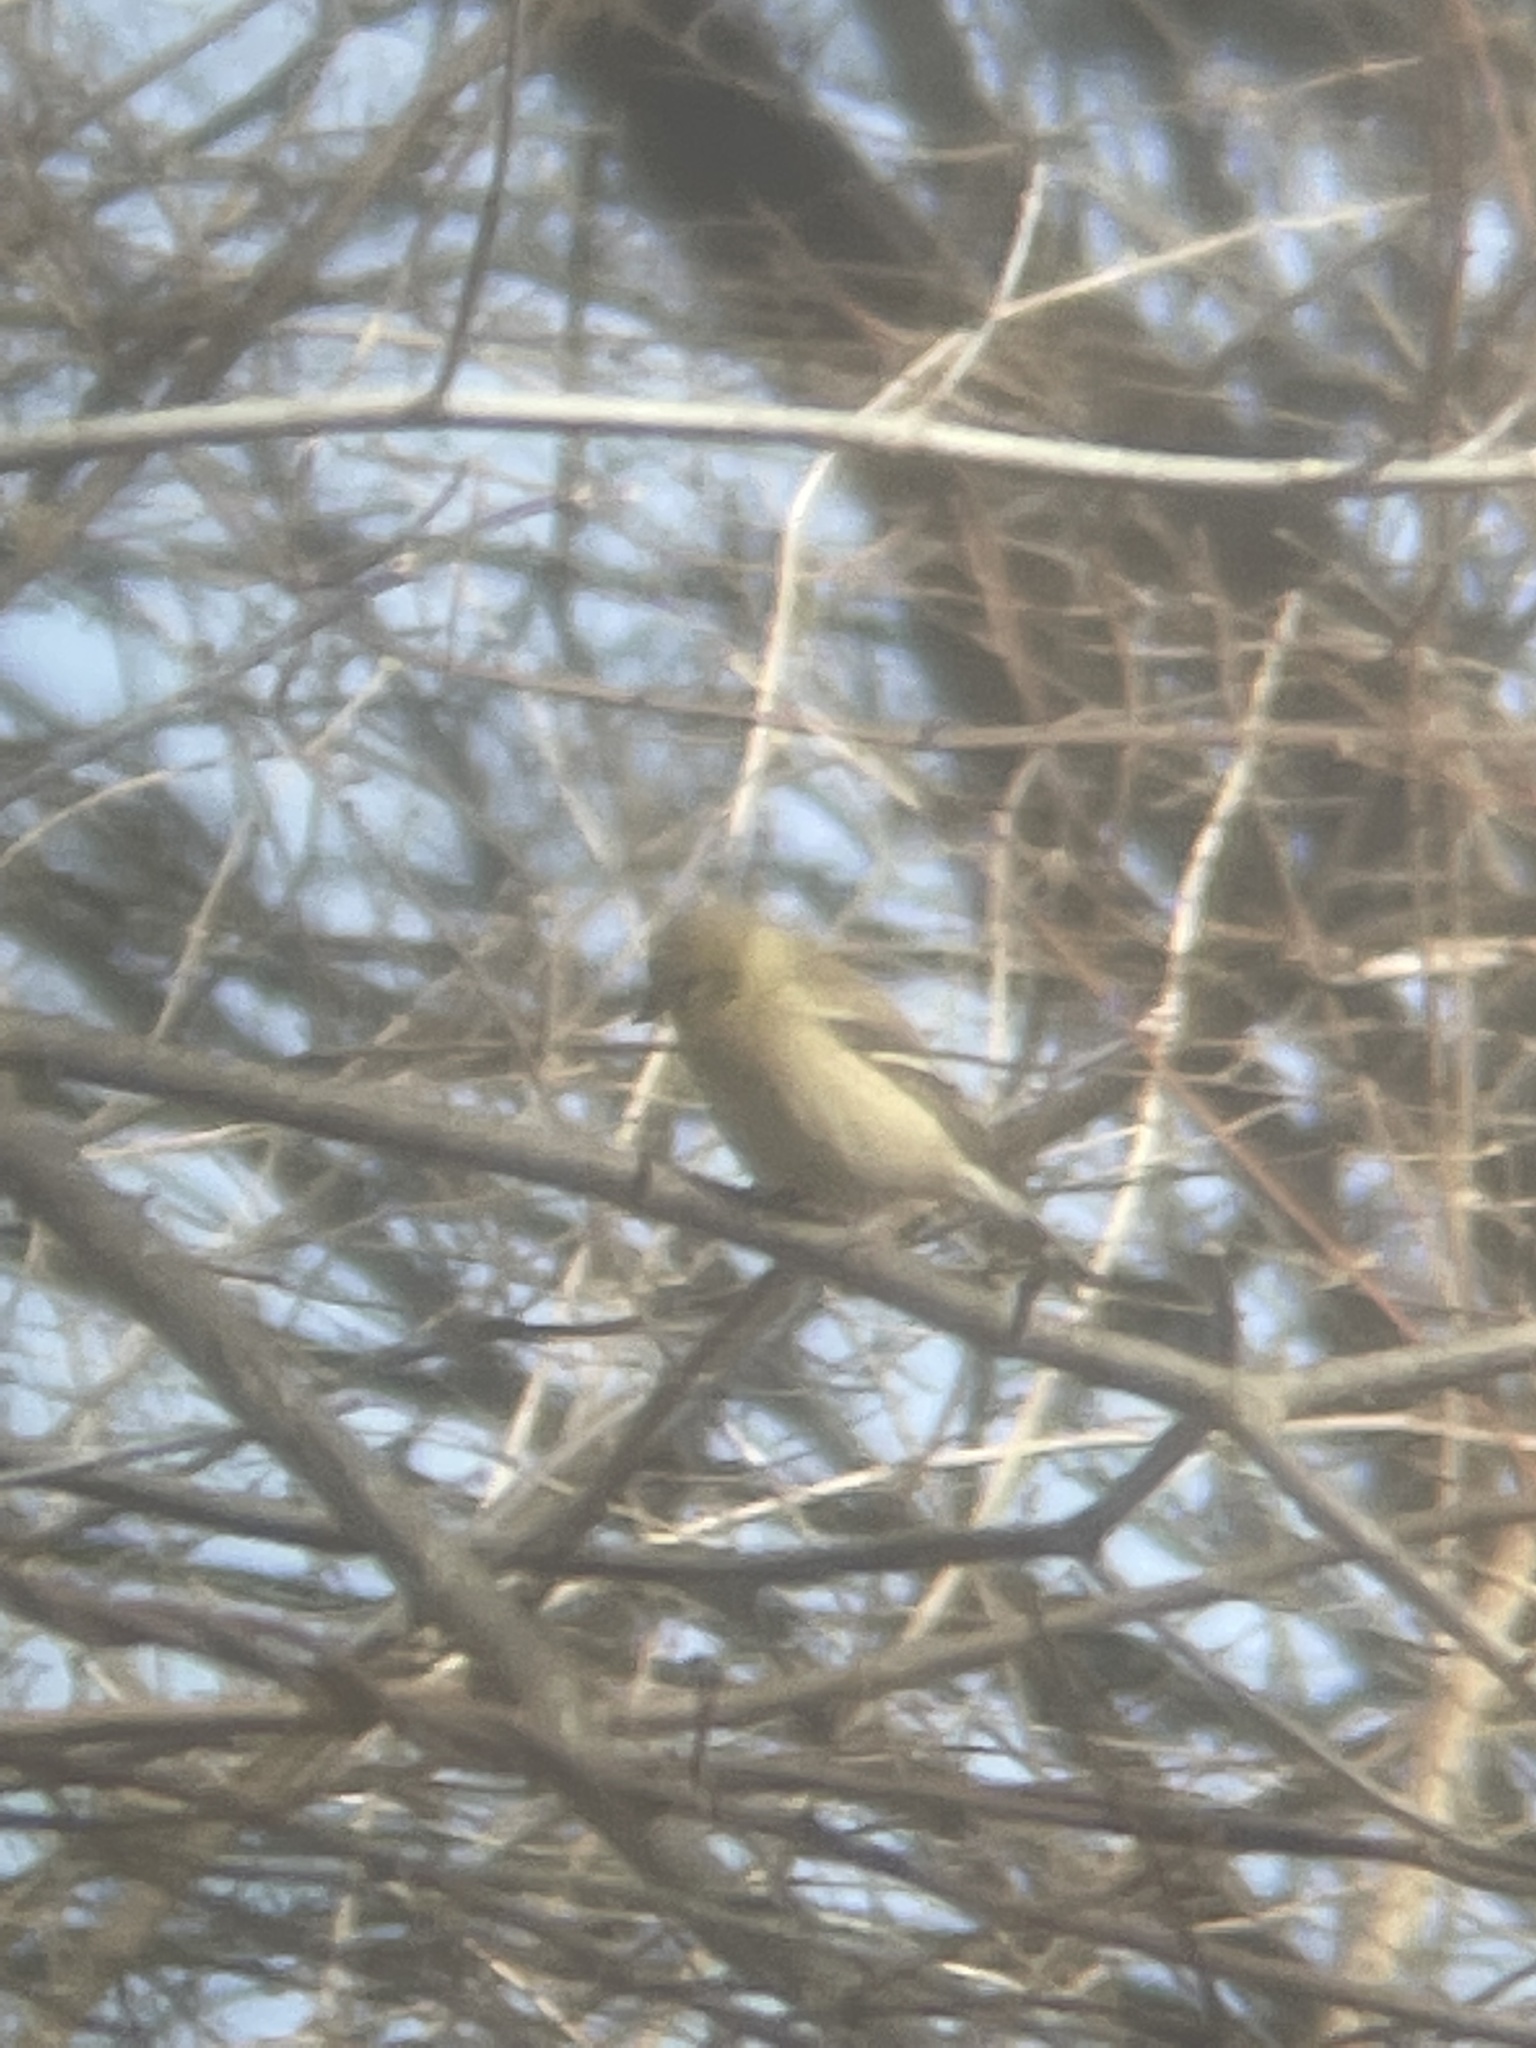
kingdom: Animalia
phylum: Chordata
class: Aves
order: Passeriformes
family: Fringillidae
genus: Spinus
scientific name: Spinus tristis
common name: American goldfinch
